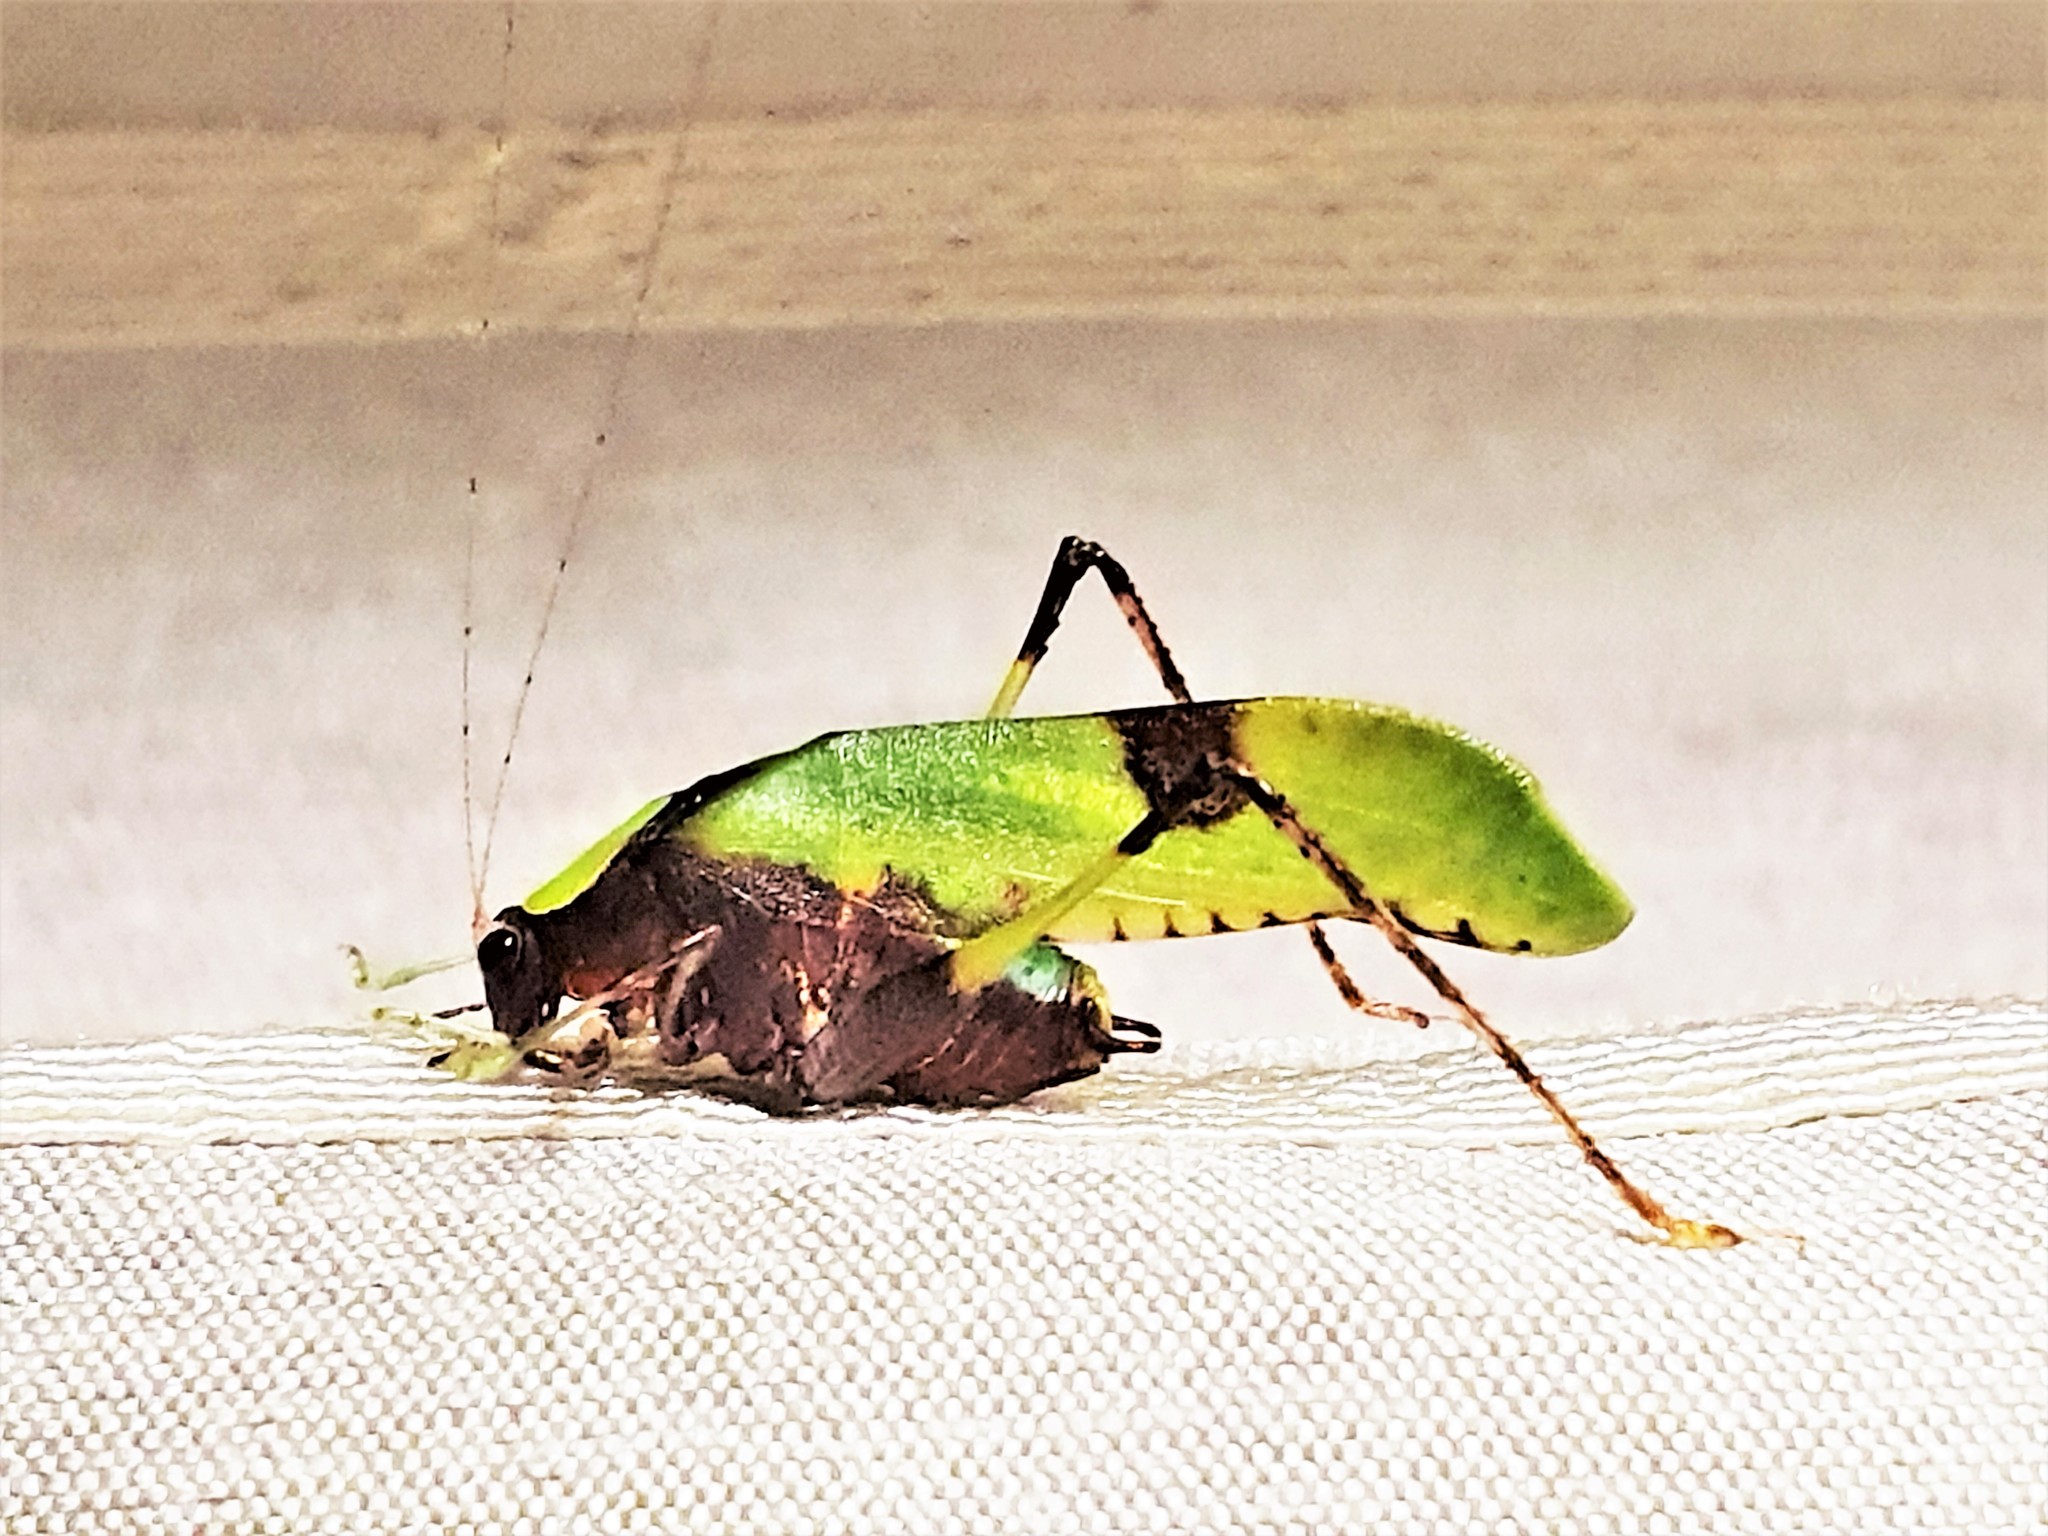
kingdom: Animalia
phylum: Arthropoda
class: Insecta
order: Orthoptera
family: Tettigoniidae
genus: Hetaira
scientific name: Hetaira cornuta
